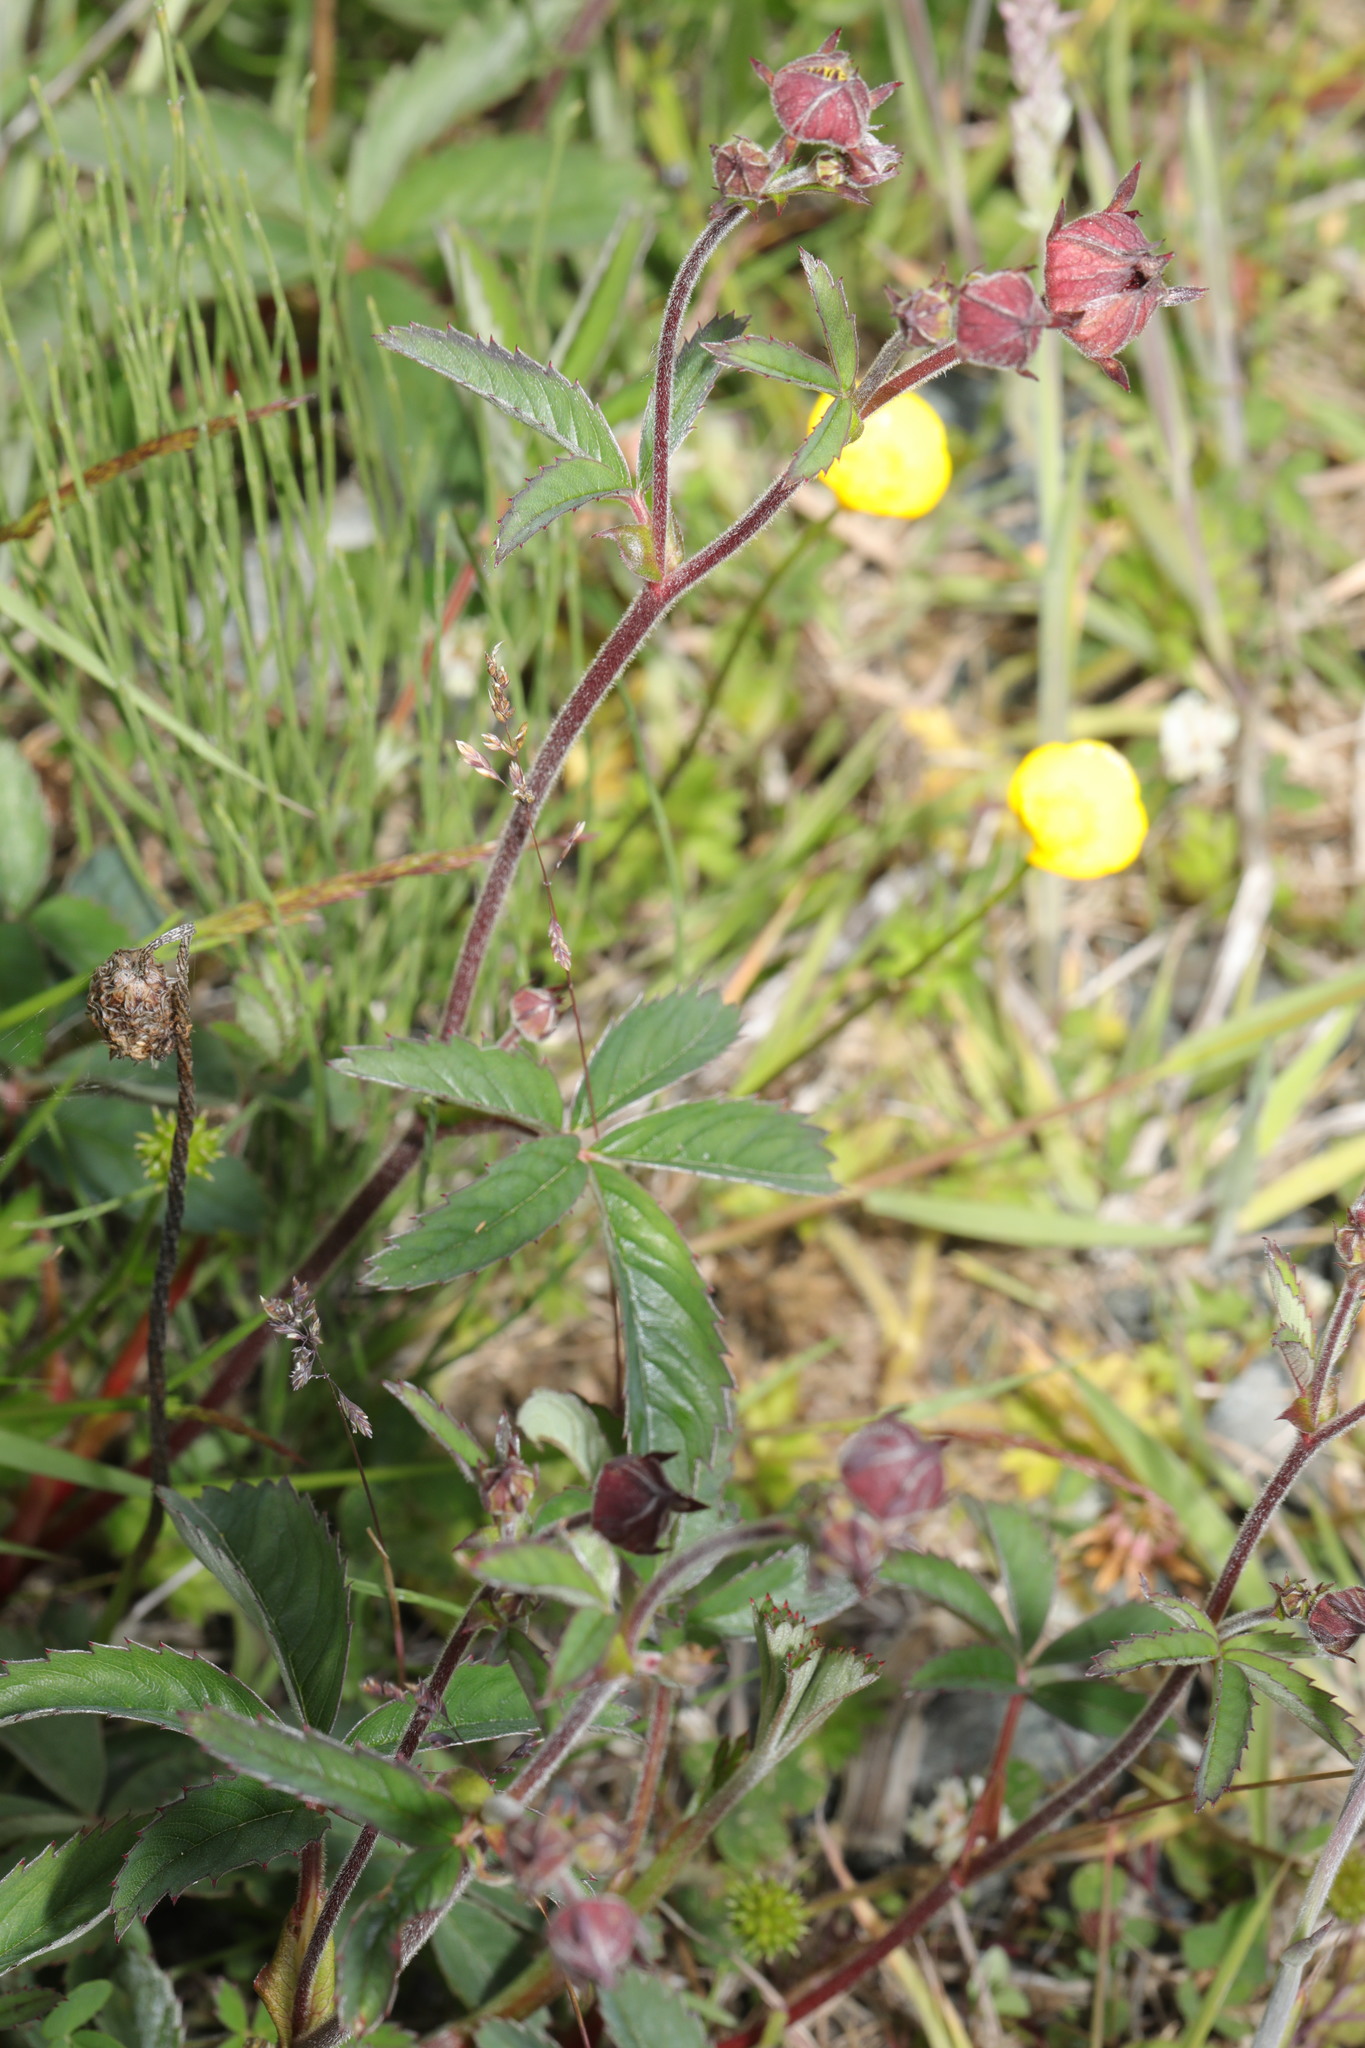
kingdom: Plantae
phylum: Tracheophyta
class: Magnoliopsida
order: Rosales
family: Rosaceae
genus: Comarum
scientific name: Comarum palustre
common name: Marsh cinquefoil
